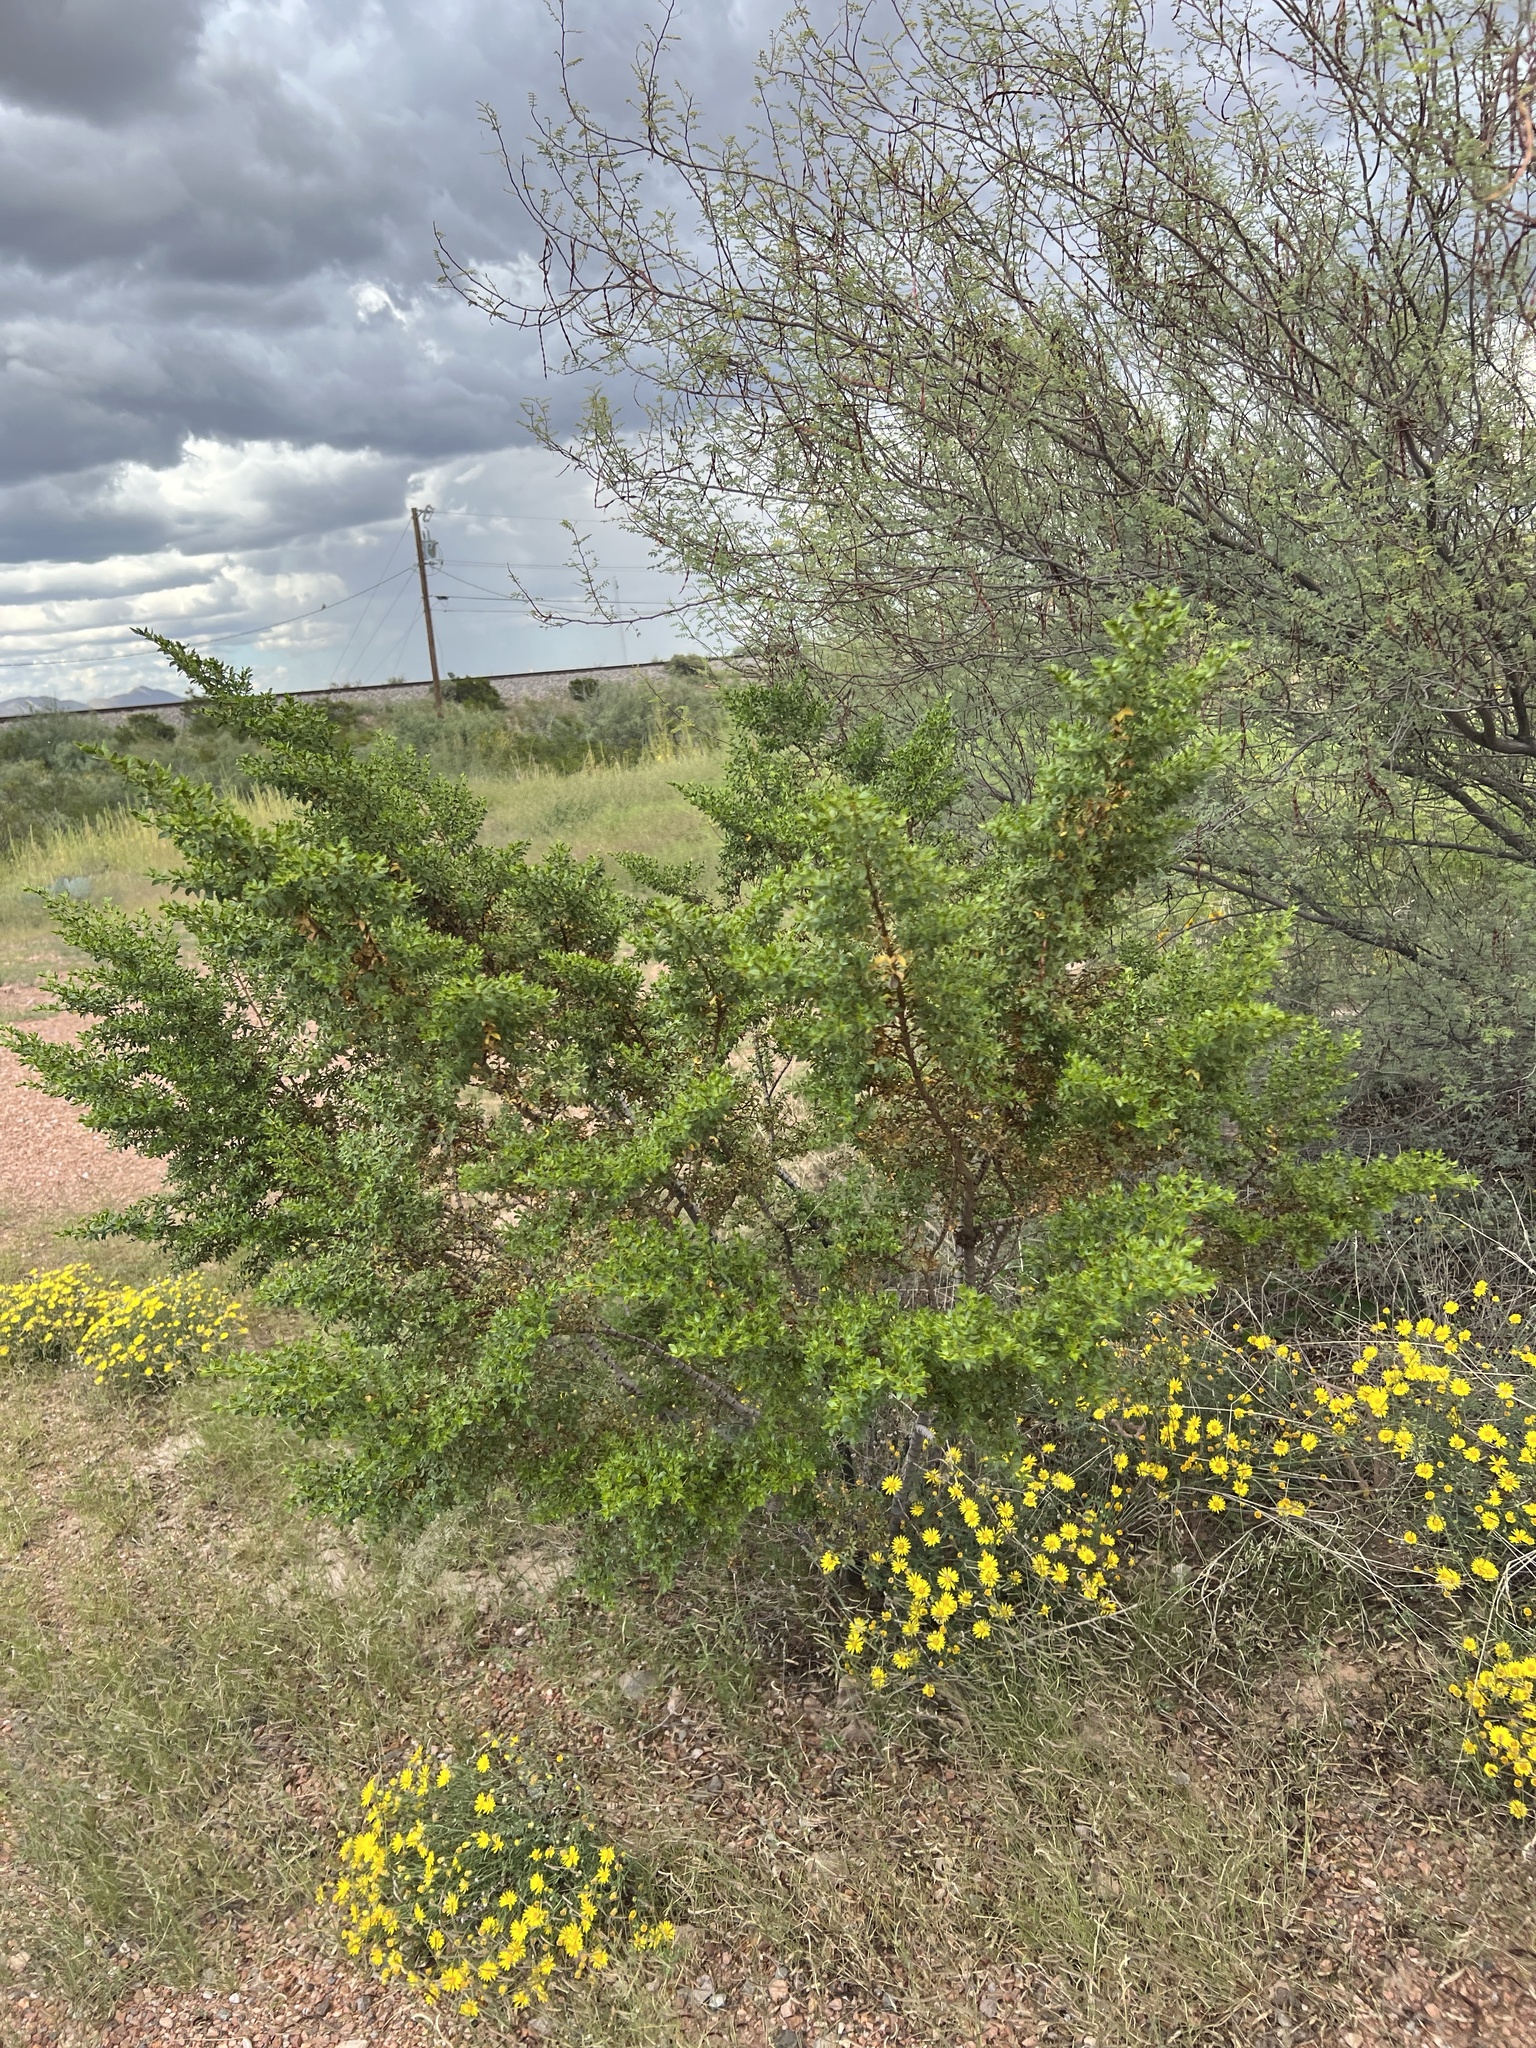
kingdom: Plantae
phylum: Tracheophyta
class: Magnoliopsida
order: Zygophyllales
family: Zygophyllaceae
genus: Larrea
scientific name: Larrea tridentata
